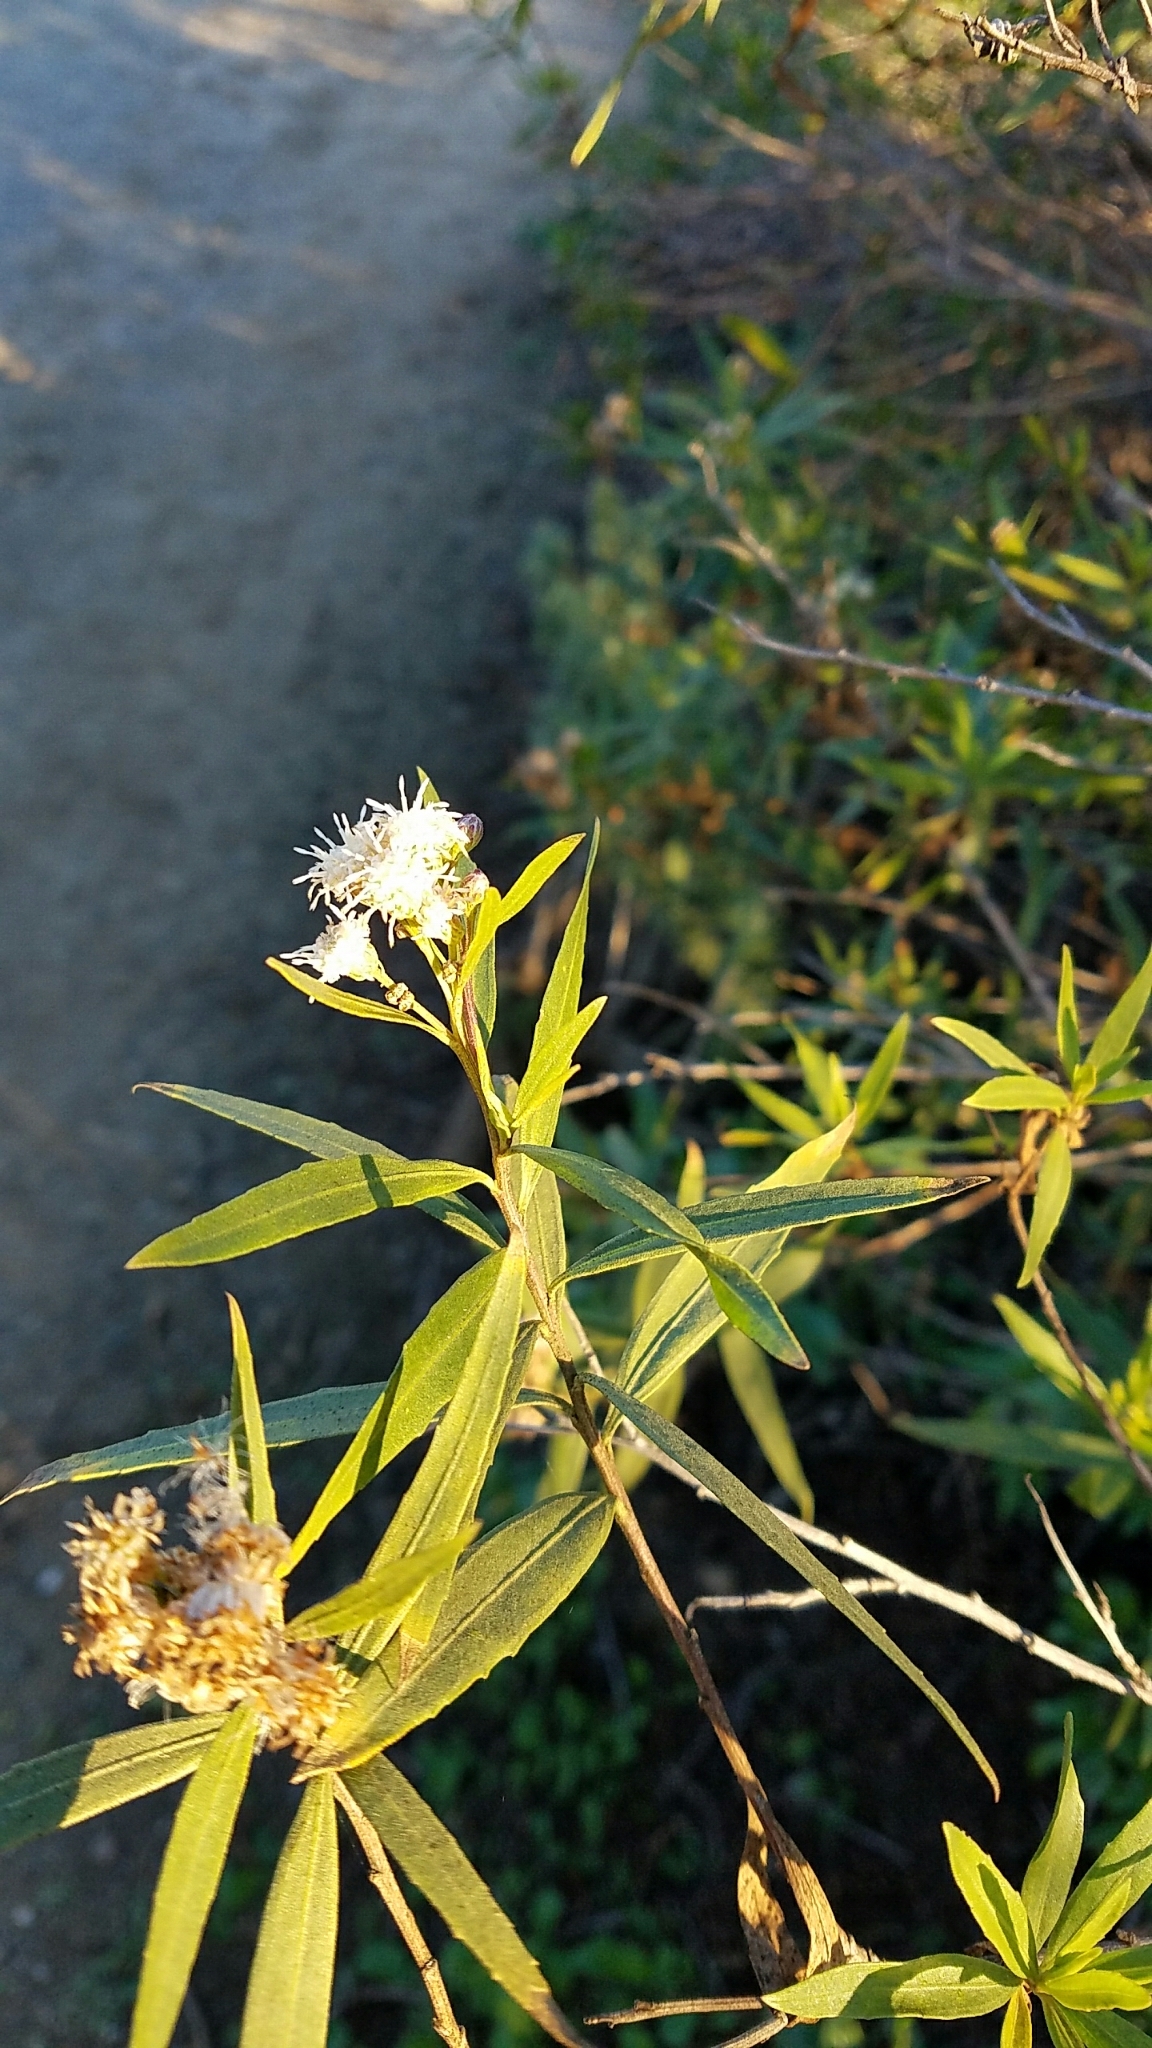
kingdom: Plantae
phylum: Tracheophyta
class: Magnoliopsida
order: Asterales
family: Asteraceae
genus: Baccharis
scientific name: Baccharis salicifolia
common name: Sticky baccharis
